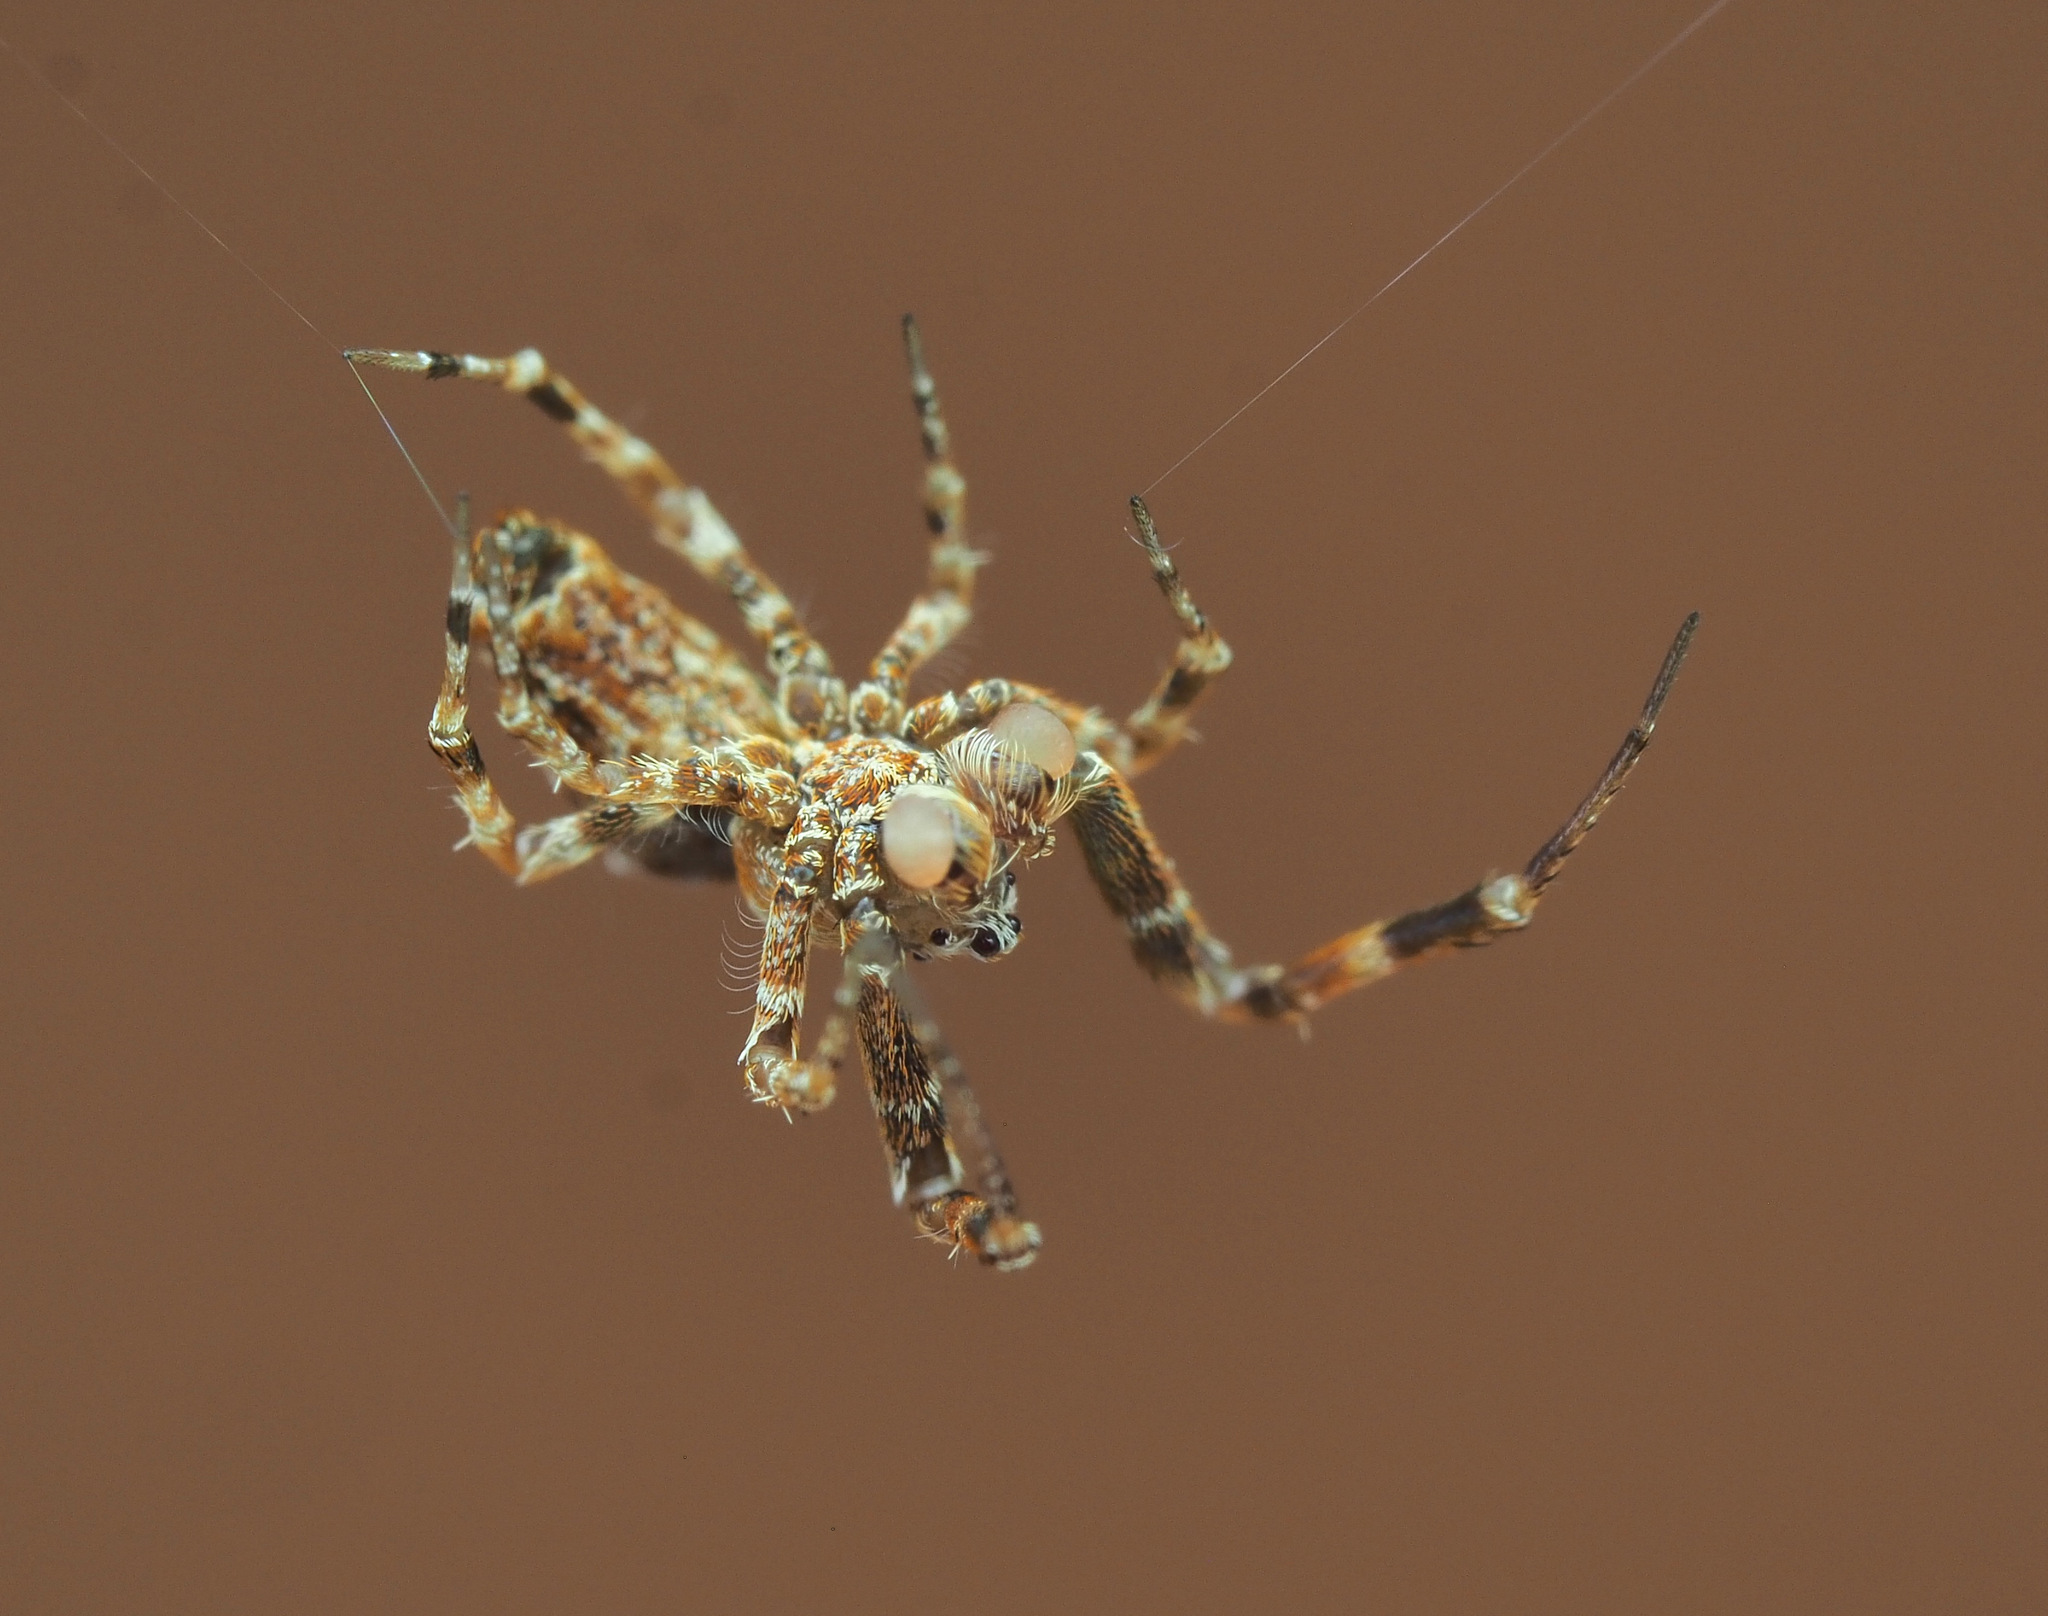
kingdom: Animalia
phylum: Arthropoda
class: Arachnida
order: Araneae
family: Uloboridae
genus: Philoponella
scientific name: Philoponella congregabilis
